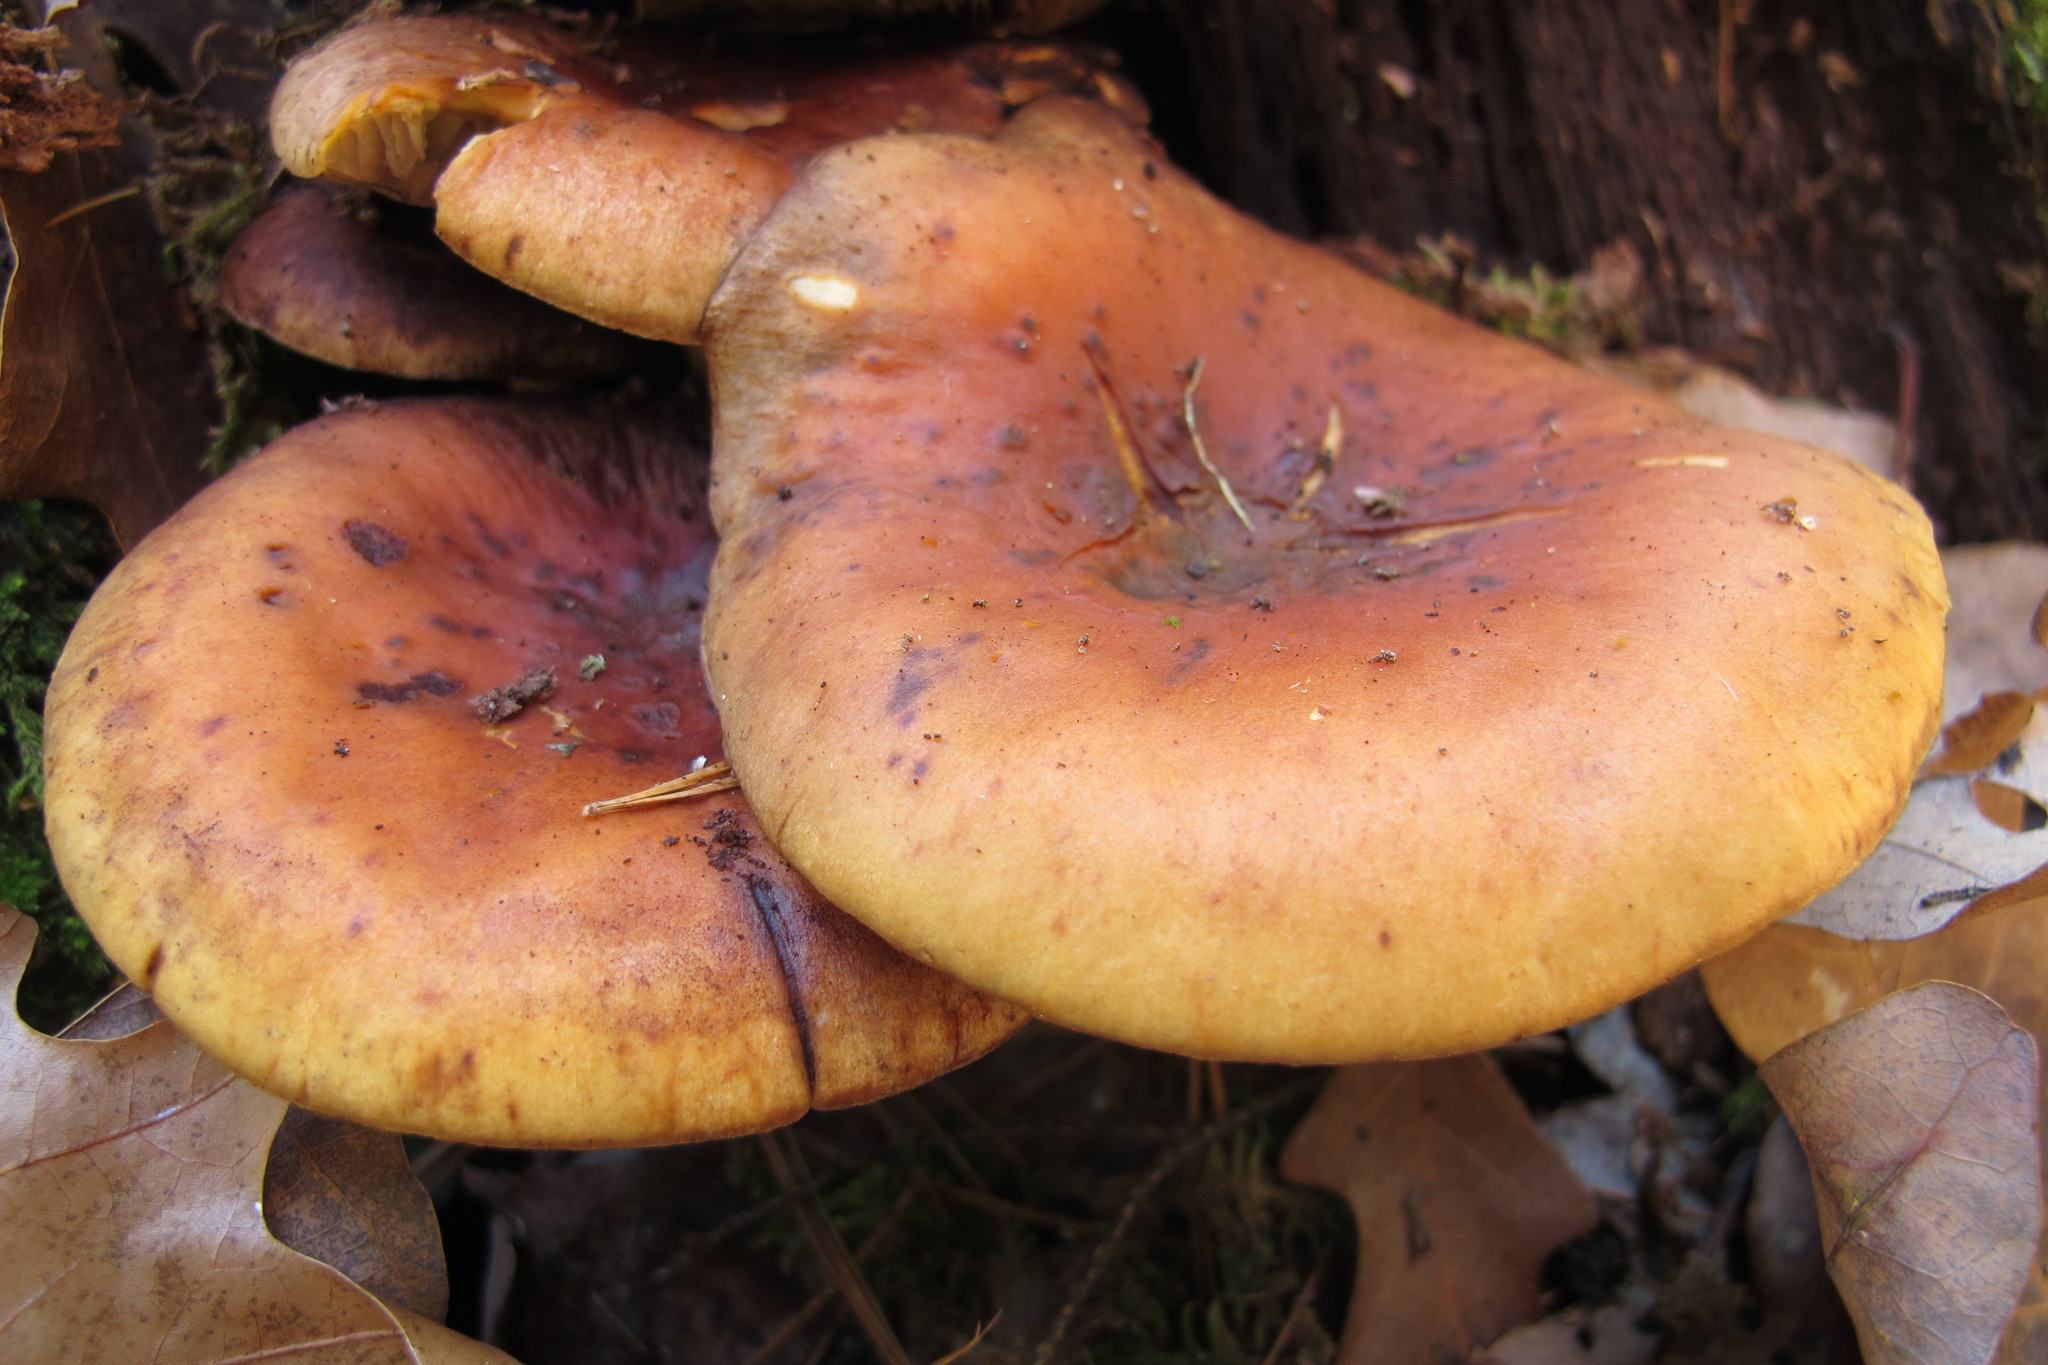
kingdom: Fungi
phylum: Basidiomycota
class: Agaricomycetes
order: Agaricales
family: Strophariaceae
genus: Hypholoma
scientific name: Hypholoma lateritium
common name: Brick caps
